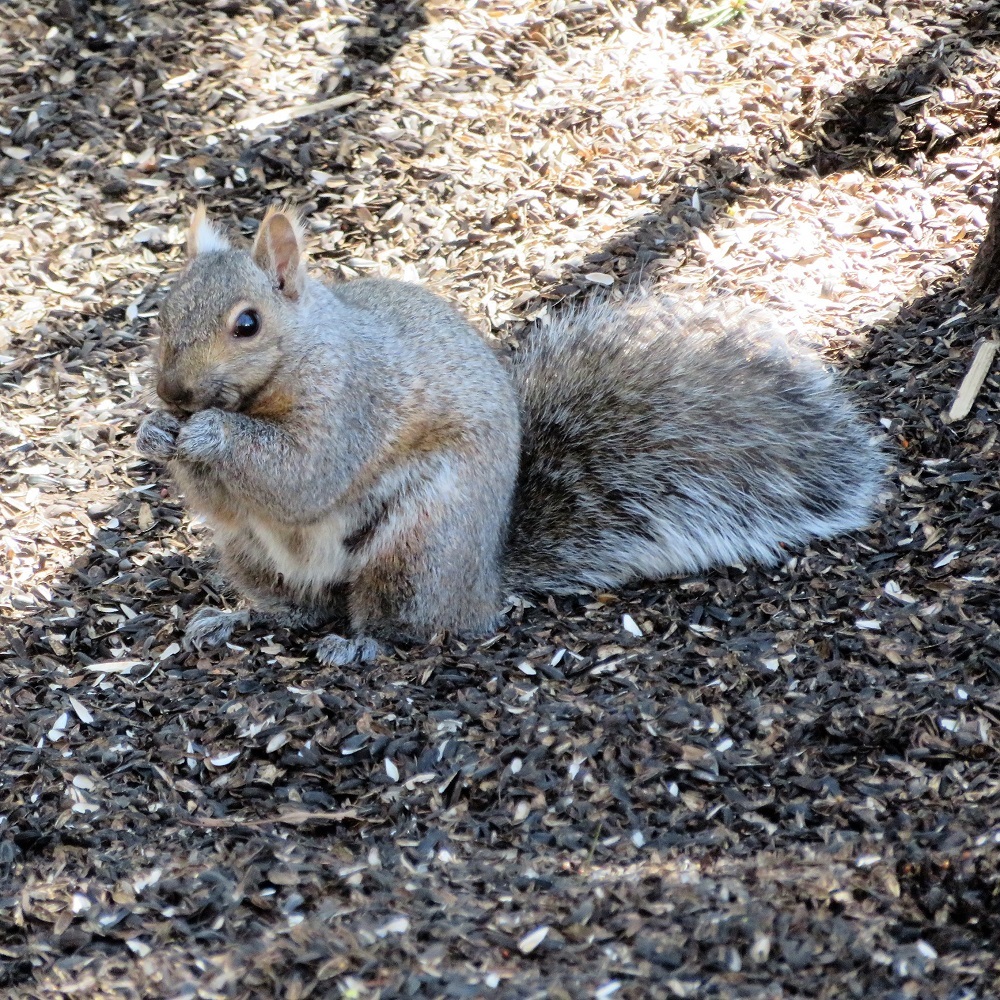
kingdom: Animalia
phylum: Chordata
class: Mammalia
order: Rodentia
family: Sciuridae
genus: Sciurus
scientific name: Sciurus carolinensis
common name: Eastern gray squirrel
